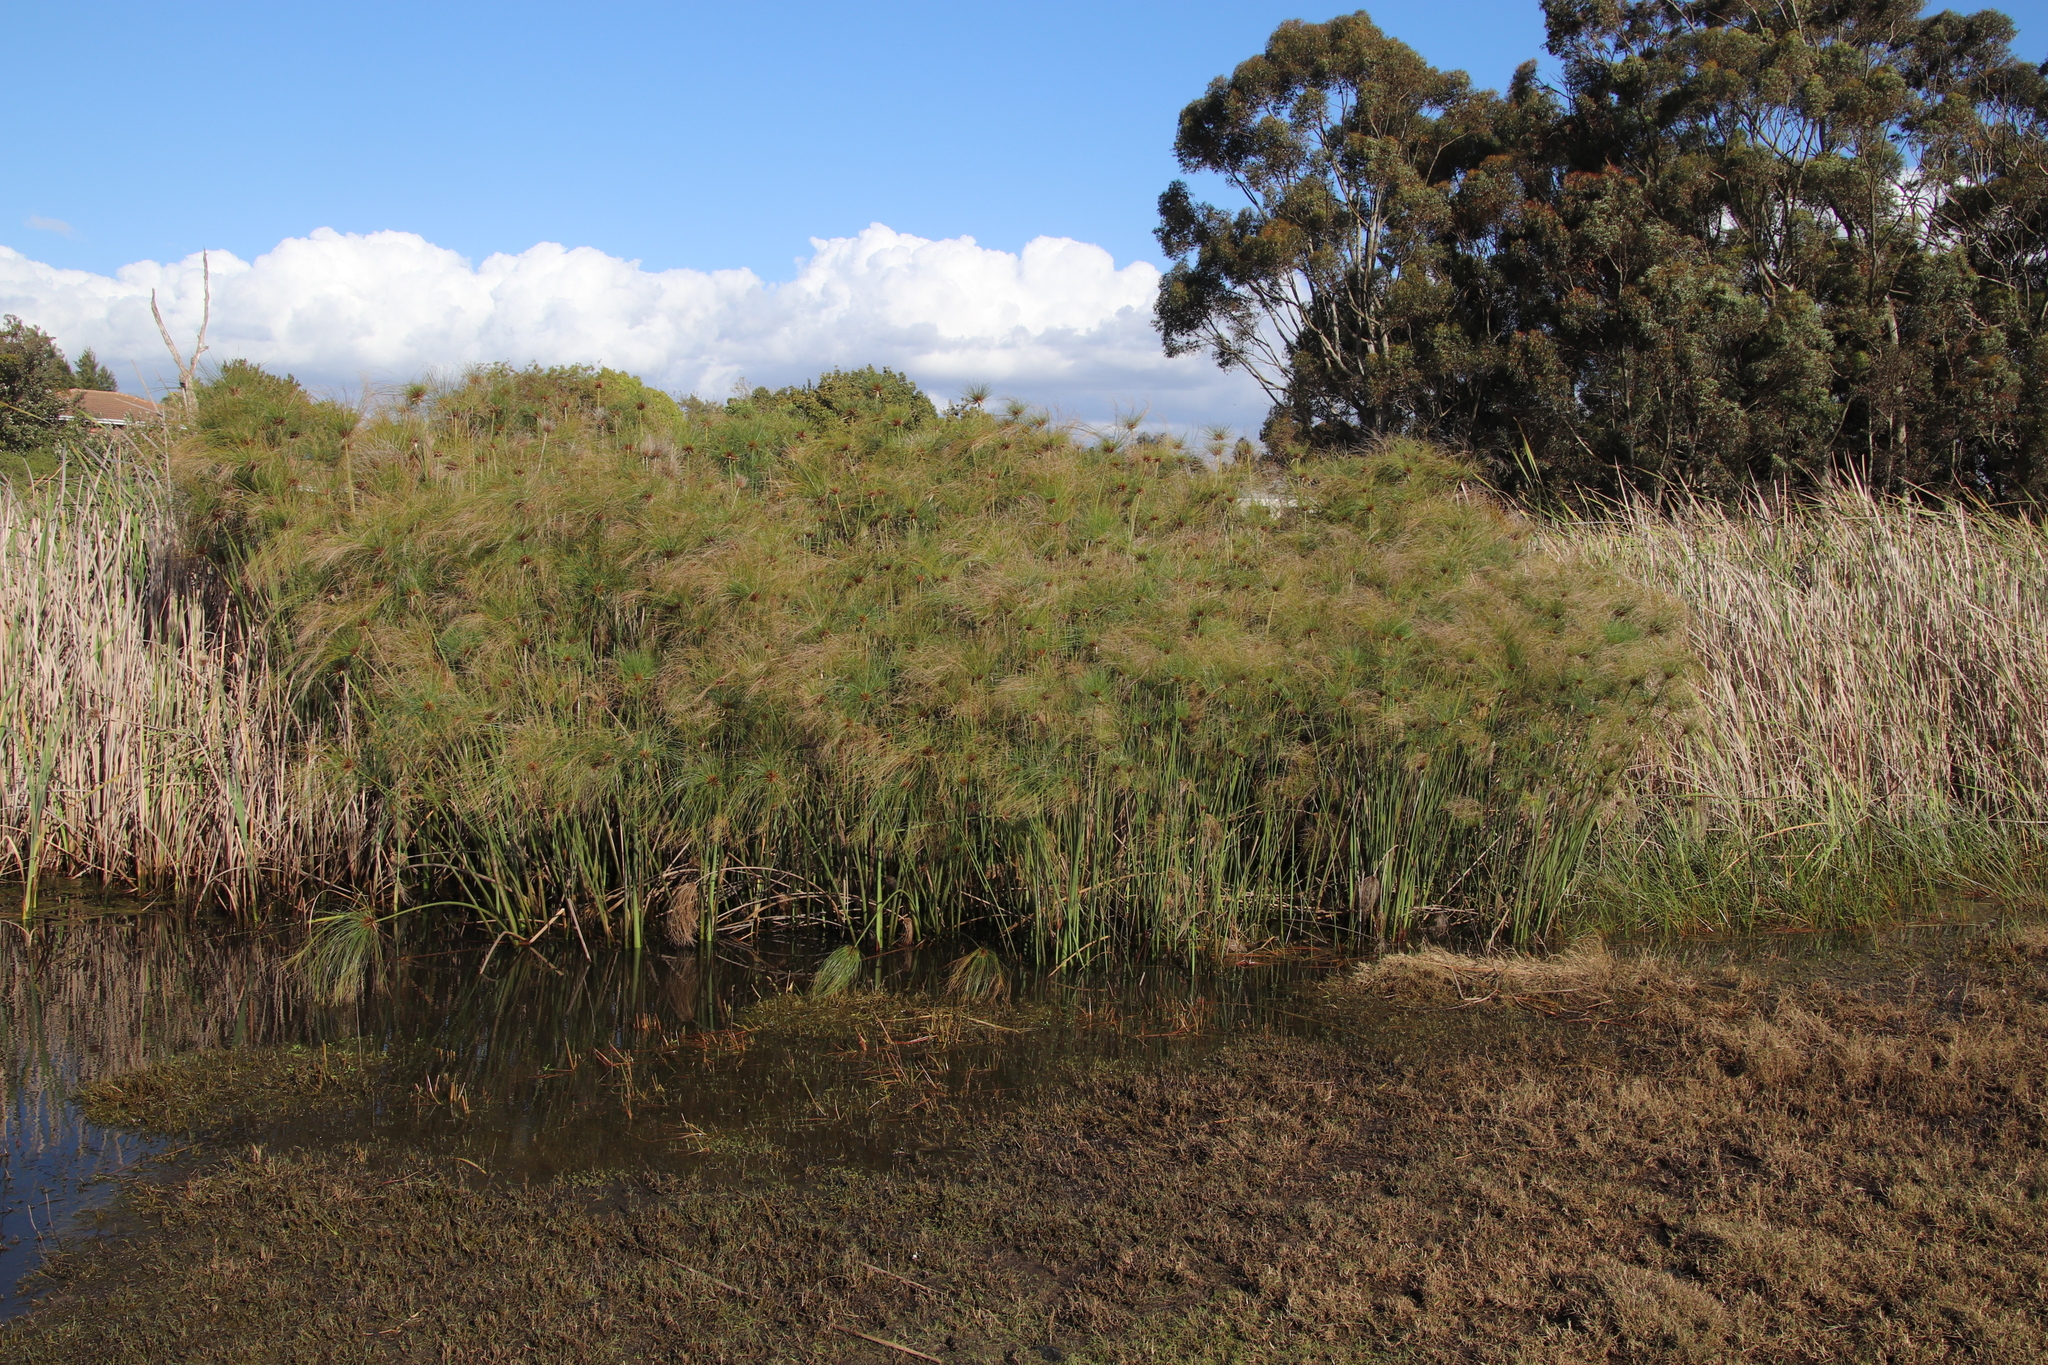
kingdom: Plantae
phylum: Tracheophyta
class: Liliopsida
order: Poales
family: Cyperaceae
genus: Cyperus
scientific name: Cyperus papyrus
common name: Papyrus
